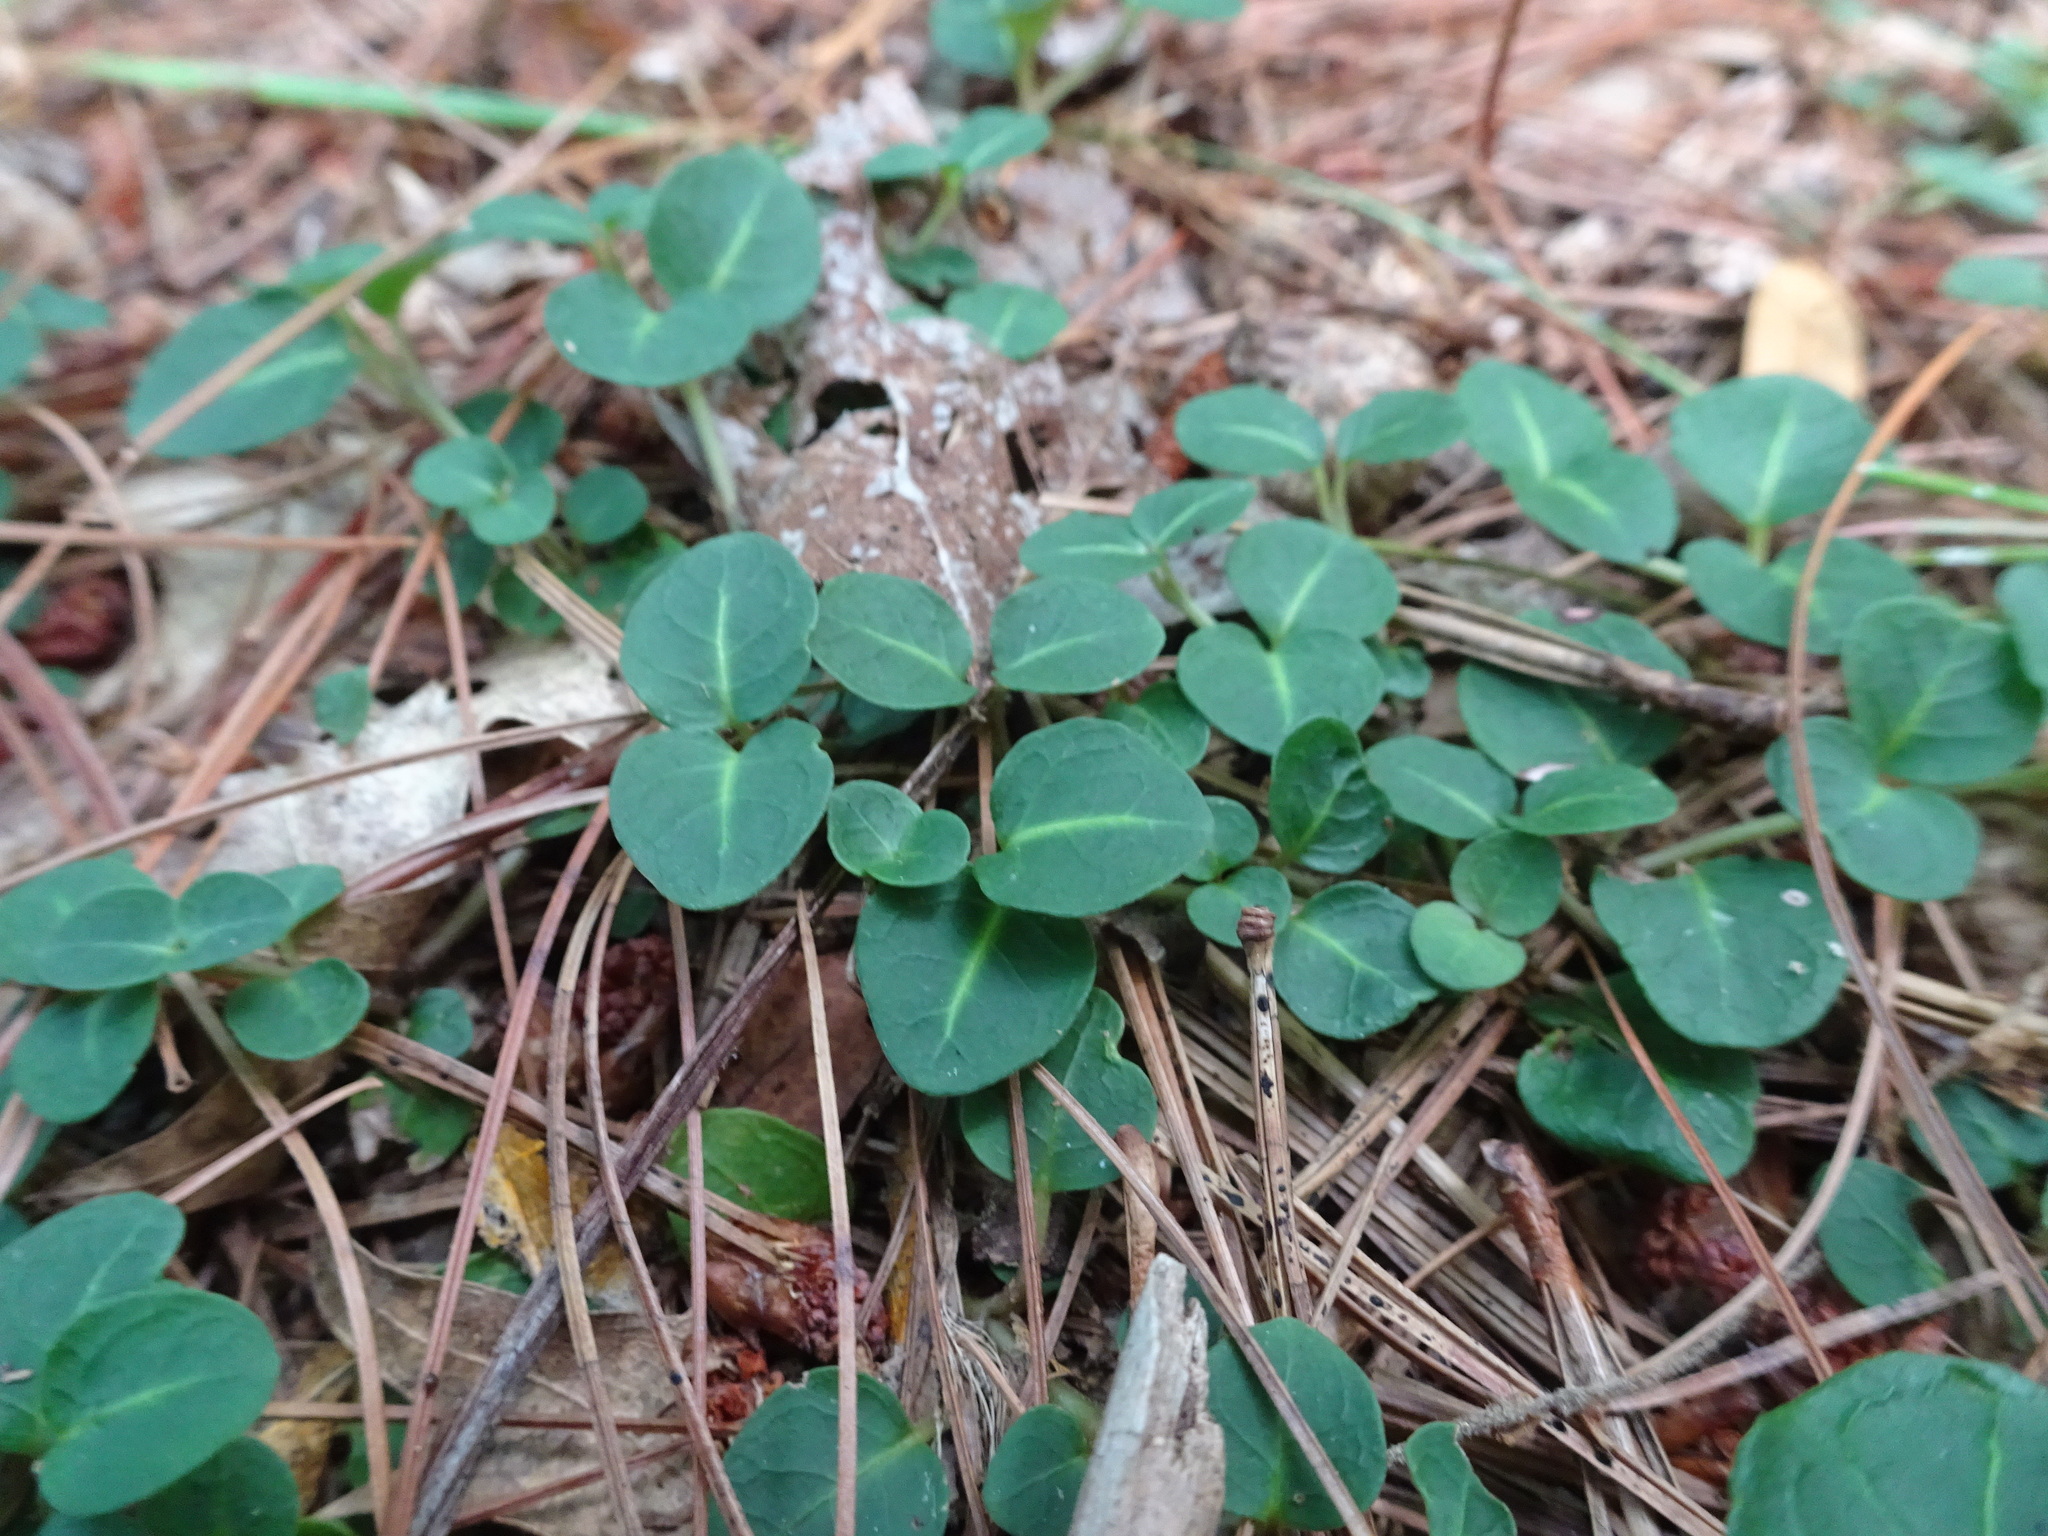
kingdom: Plantae
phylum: Tracheophyta
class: Magnoliopsida
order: Gentianales
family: Rubiaceae
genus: Mitchella
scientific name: Mitchella repens
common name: Partridge-berry
